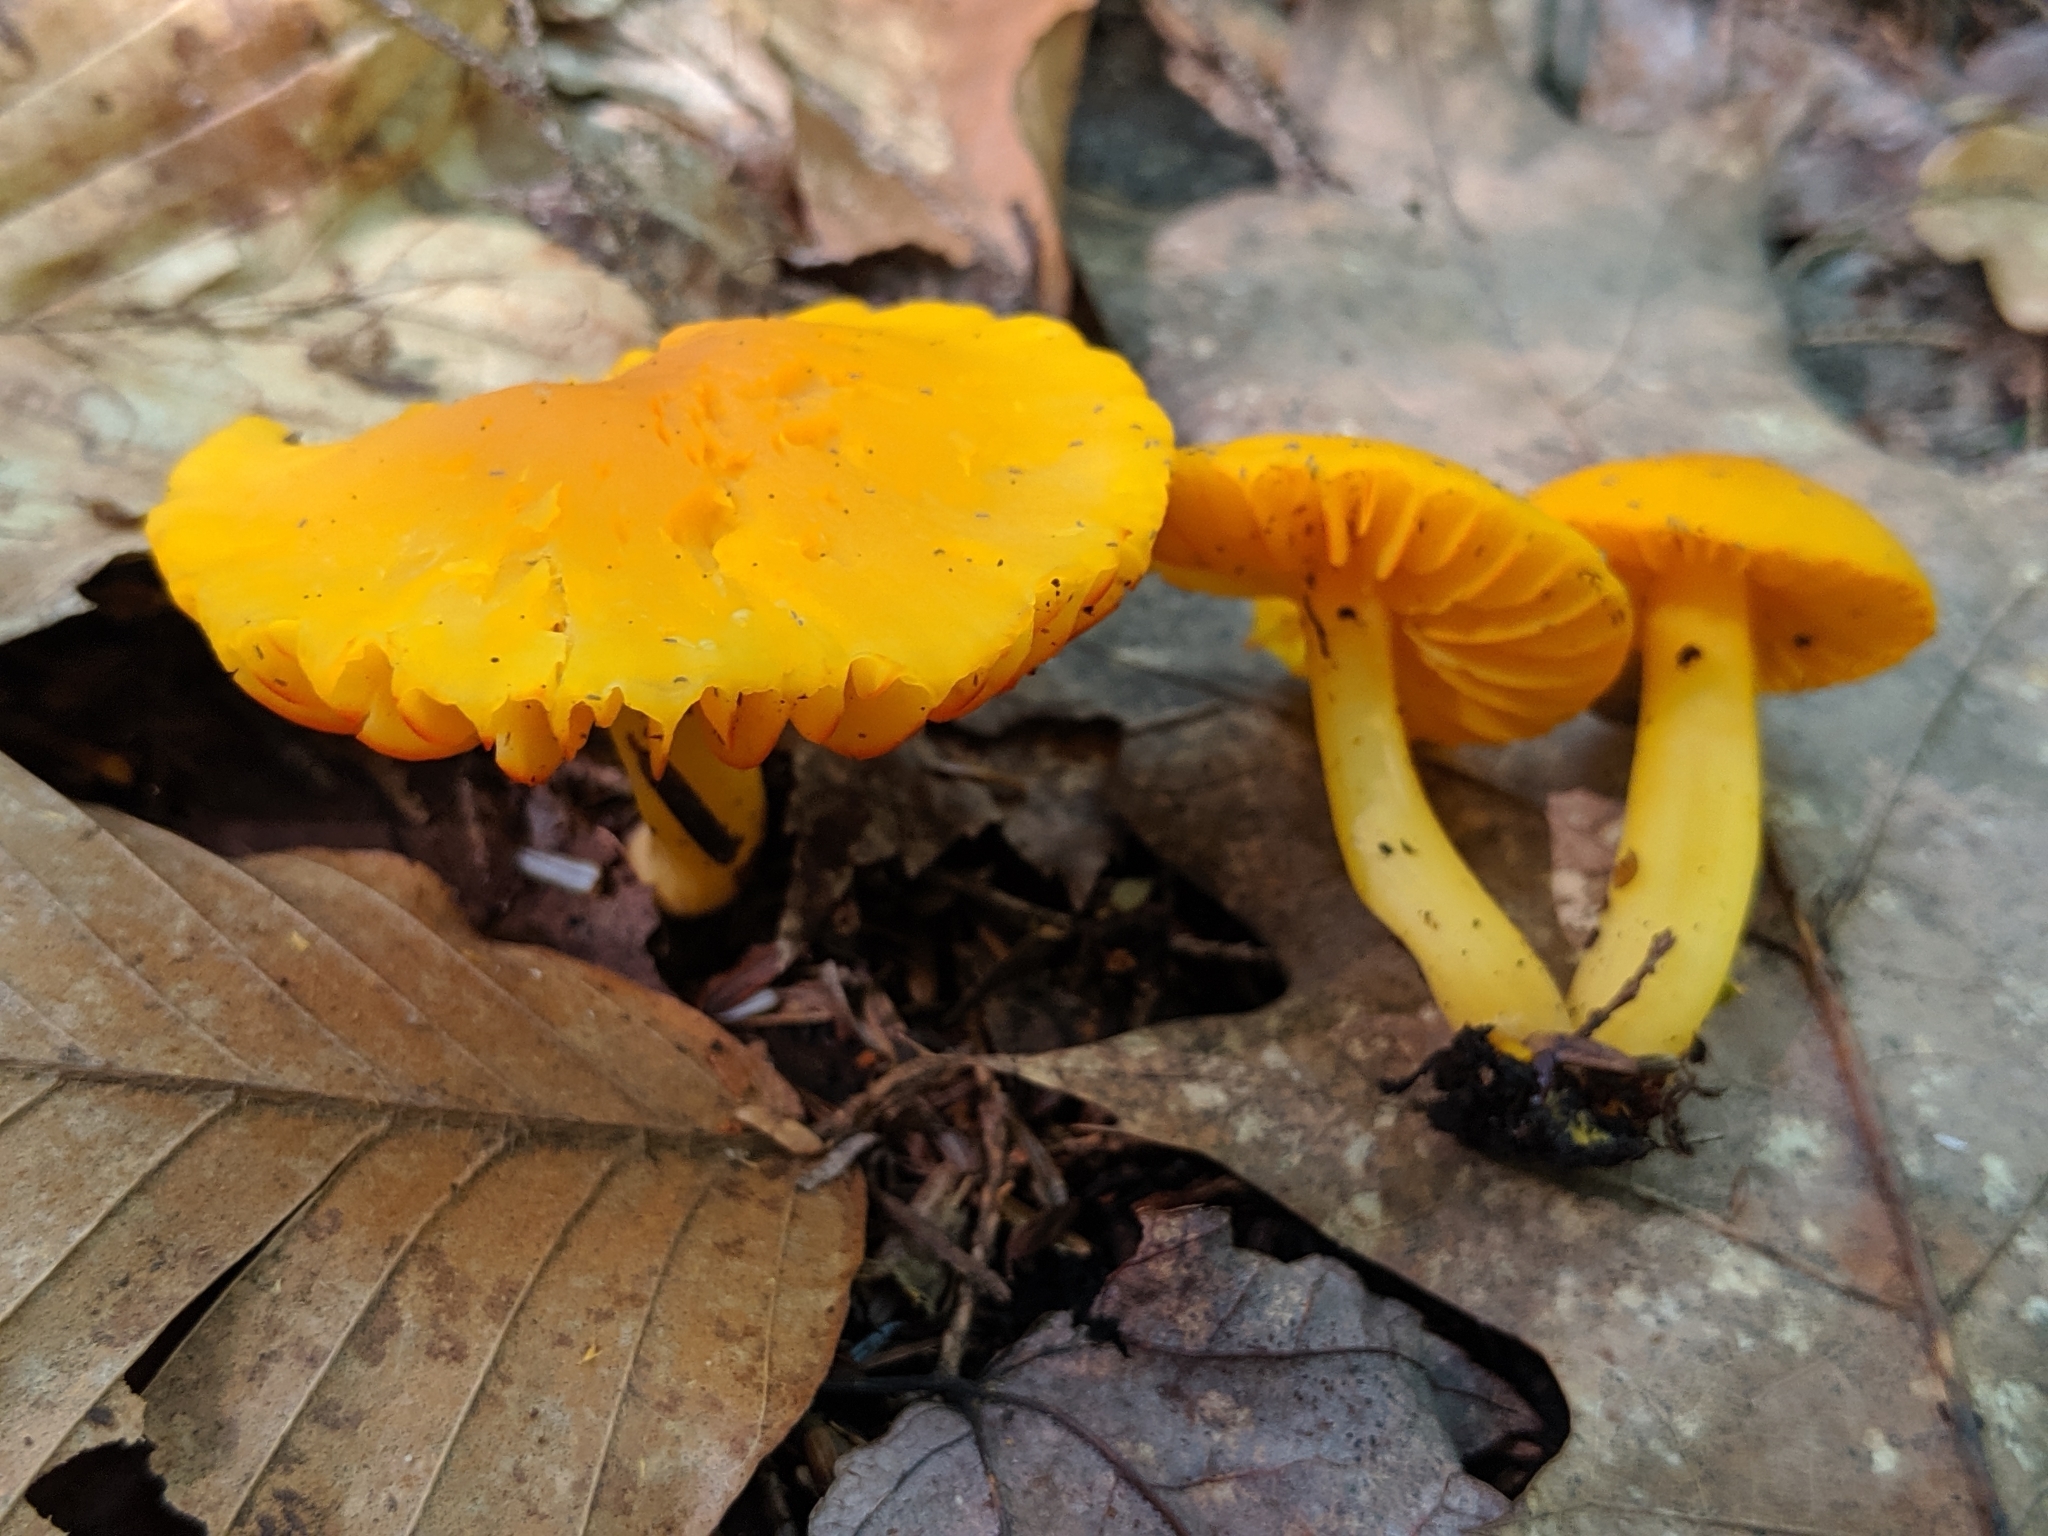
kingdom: Fungi
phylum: Basidiomycota
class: Agaricomycetes
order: Agaricales
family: Hygrophoraceae
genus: Humidicutis
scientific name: Humidicutis marginata
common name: Orange gilled waxcap
